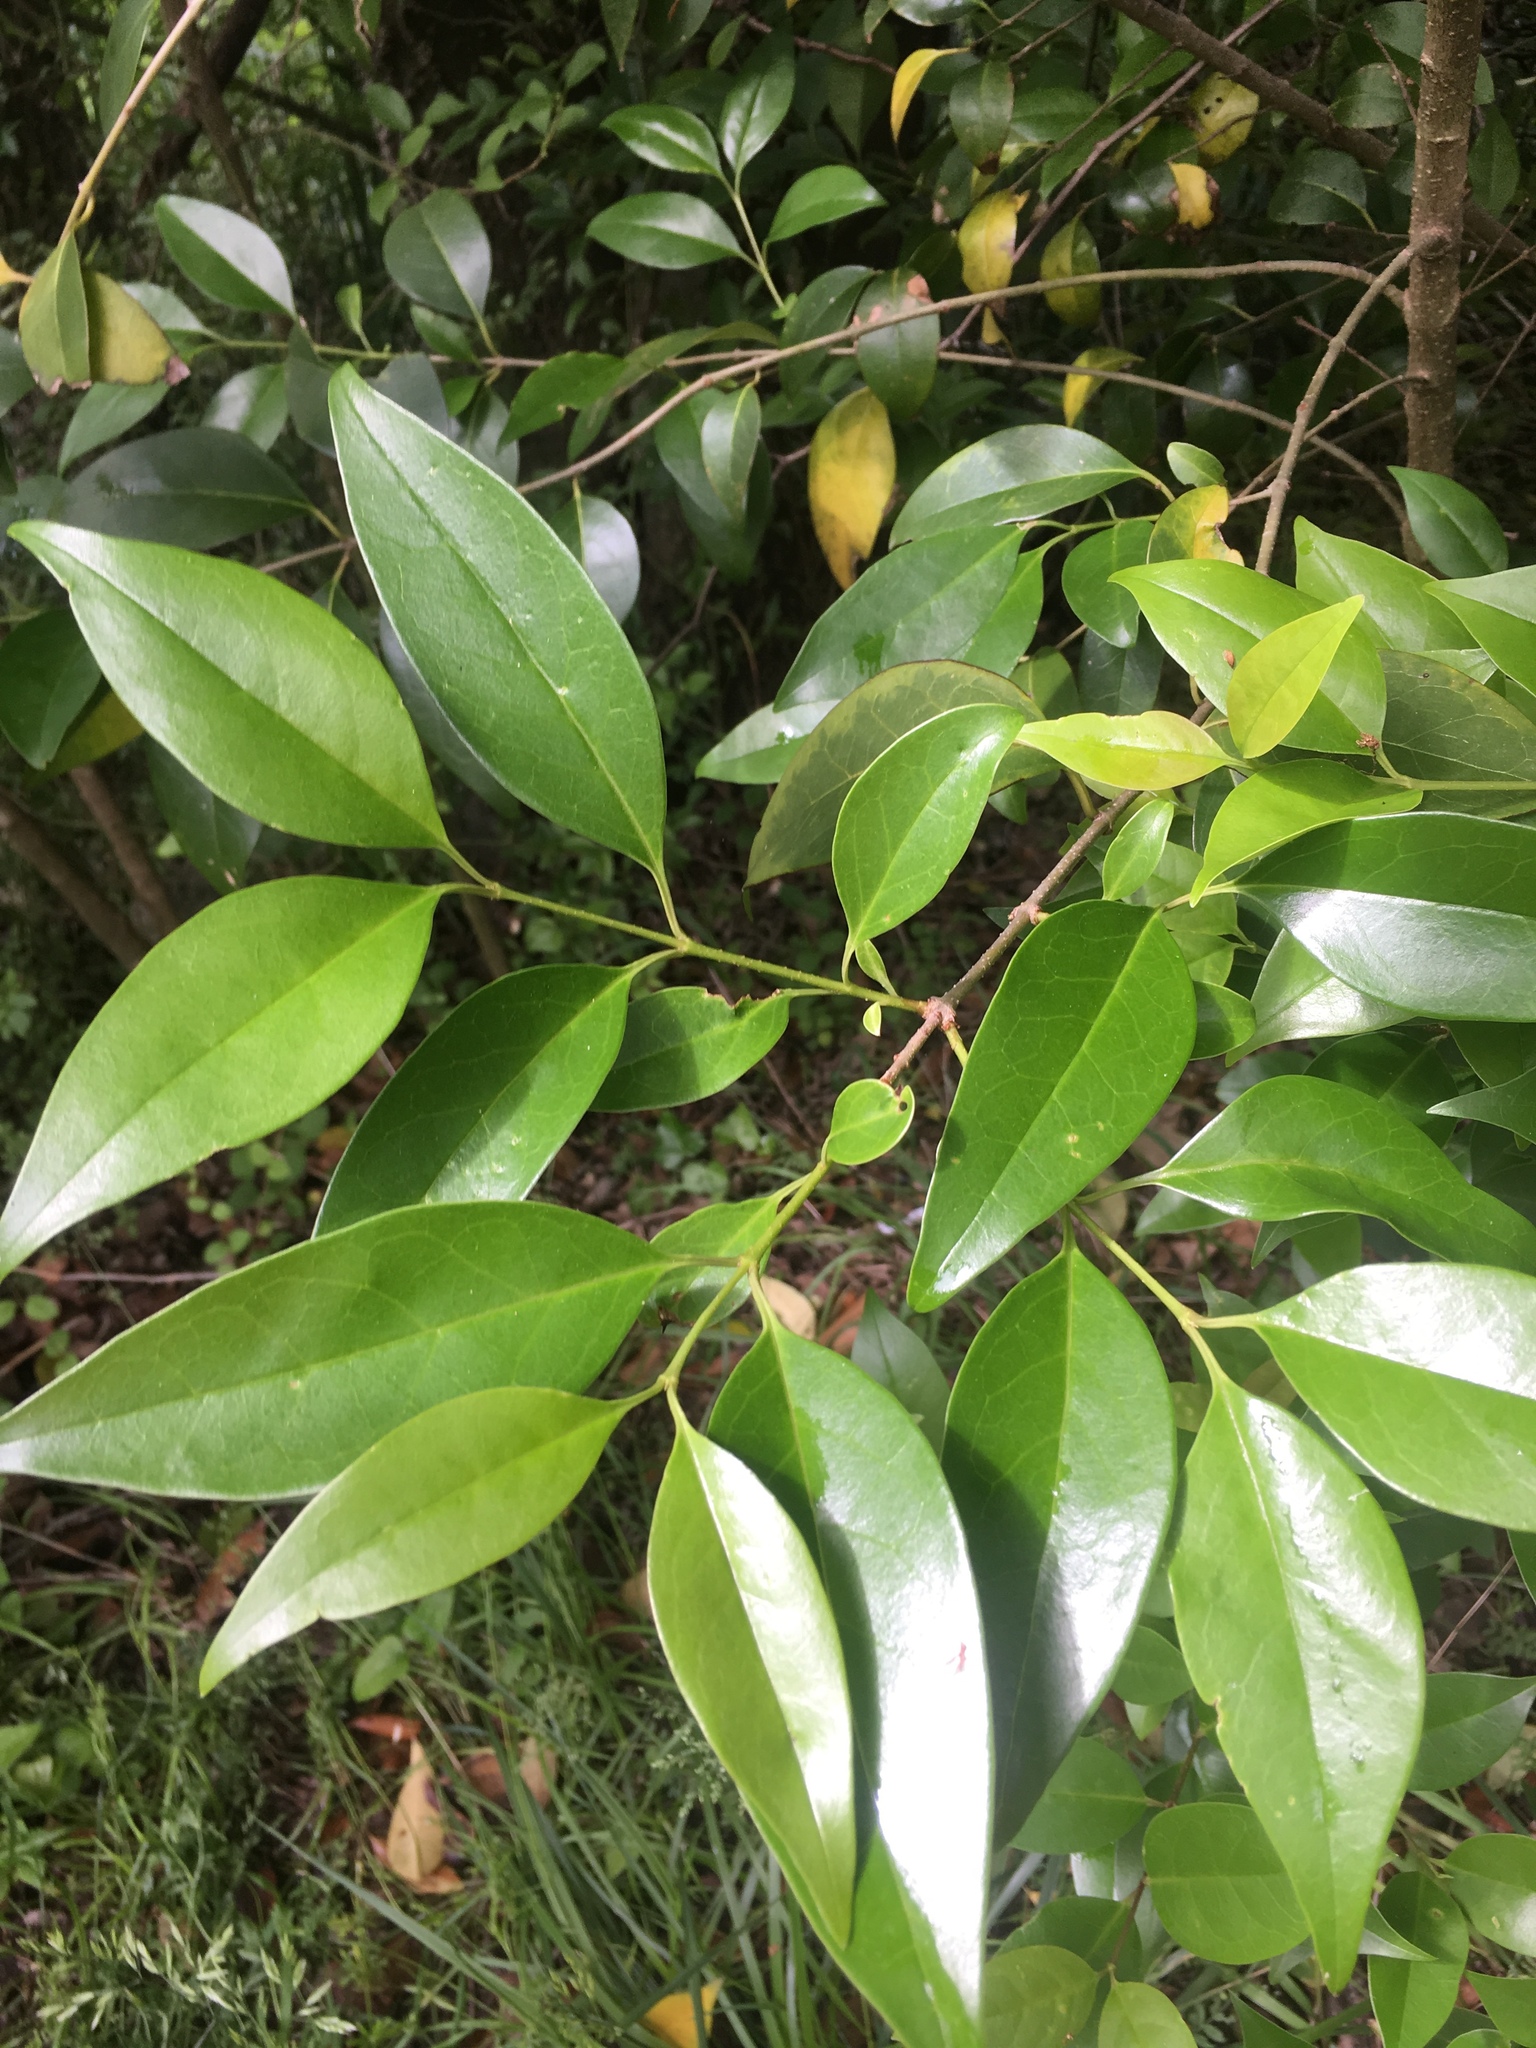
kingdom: Plantae
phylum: Tracheophyta
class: Magnoliopsida
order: Lamiales
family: Oleaceae
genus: Ligustrum
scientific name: Ligustrum lucidum
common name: Glossy privet
